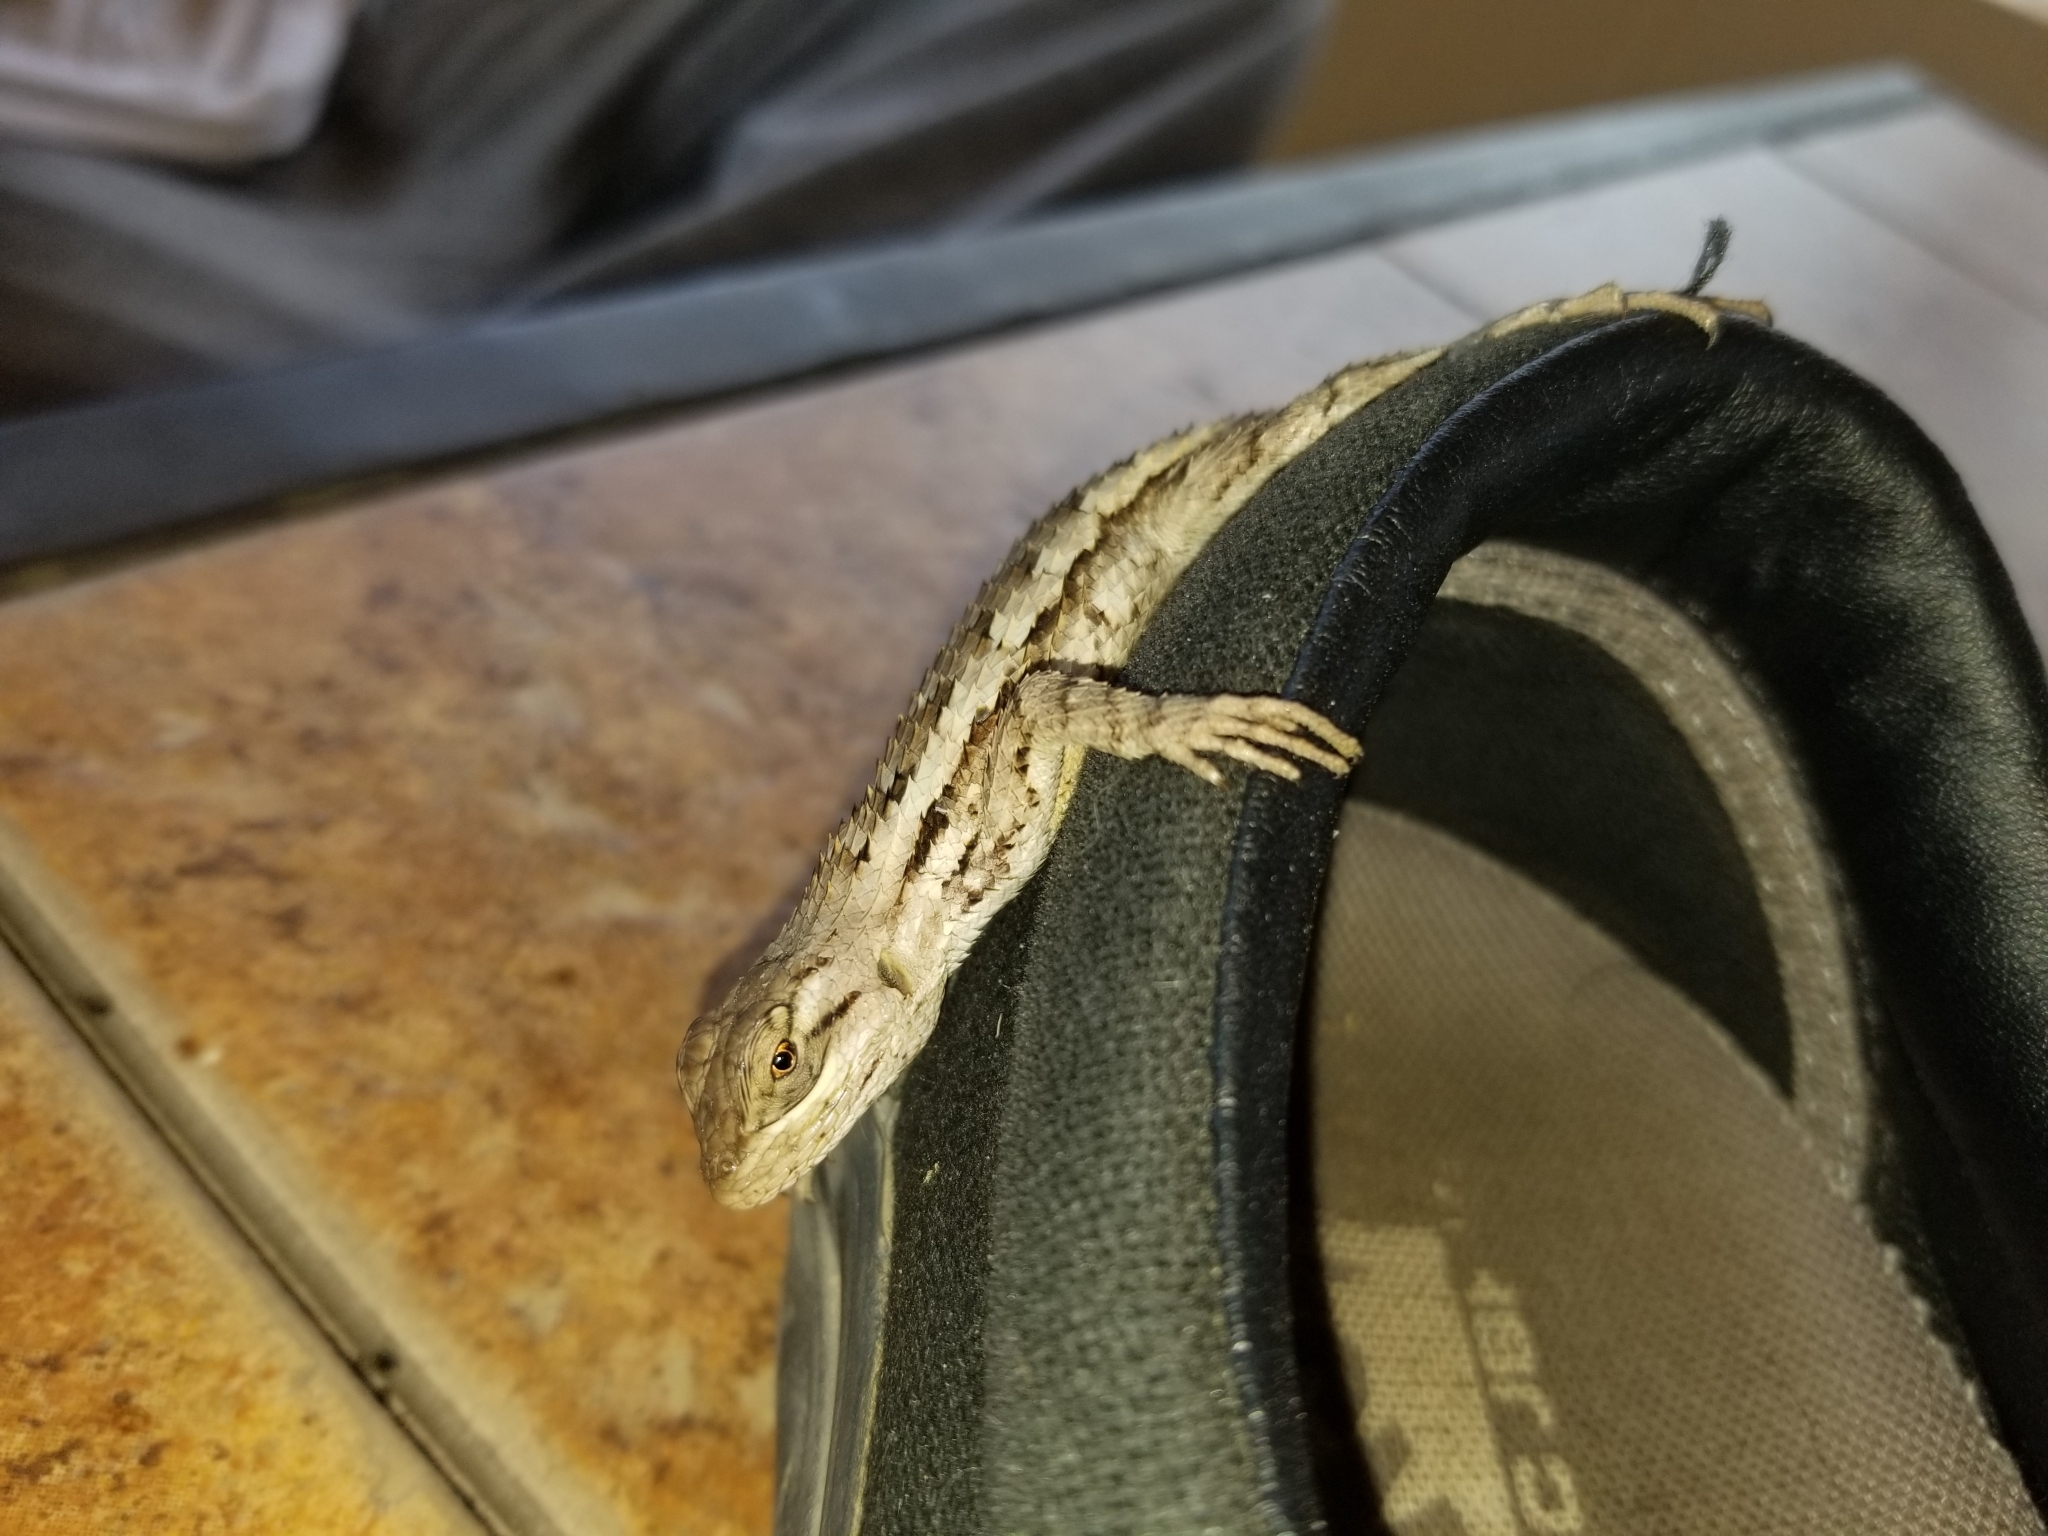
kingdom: Animalia
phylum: Chordata
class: Squamata
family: Phrynosomatidae
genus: Sceloporus
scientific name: Sceloporus olivaceus
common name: Texas spiny lizard
